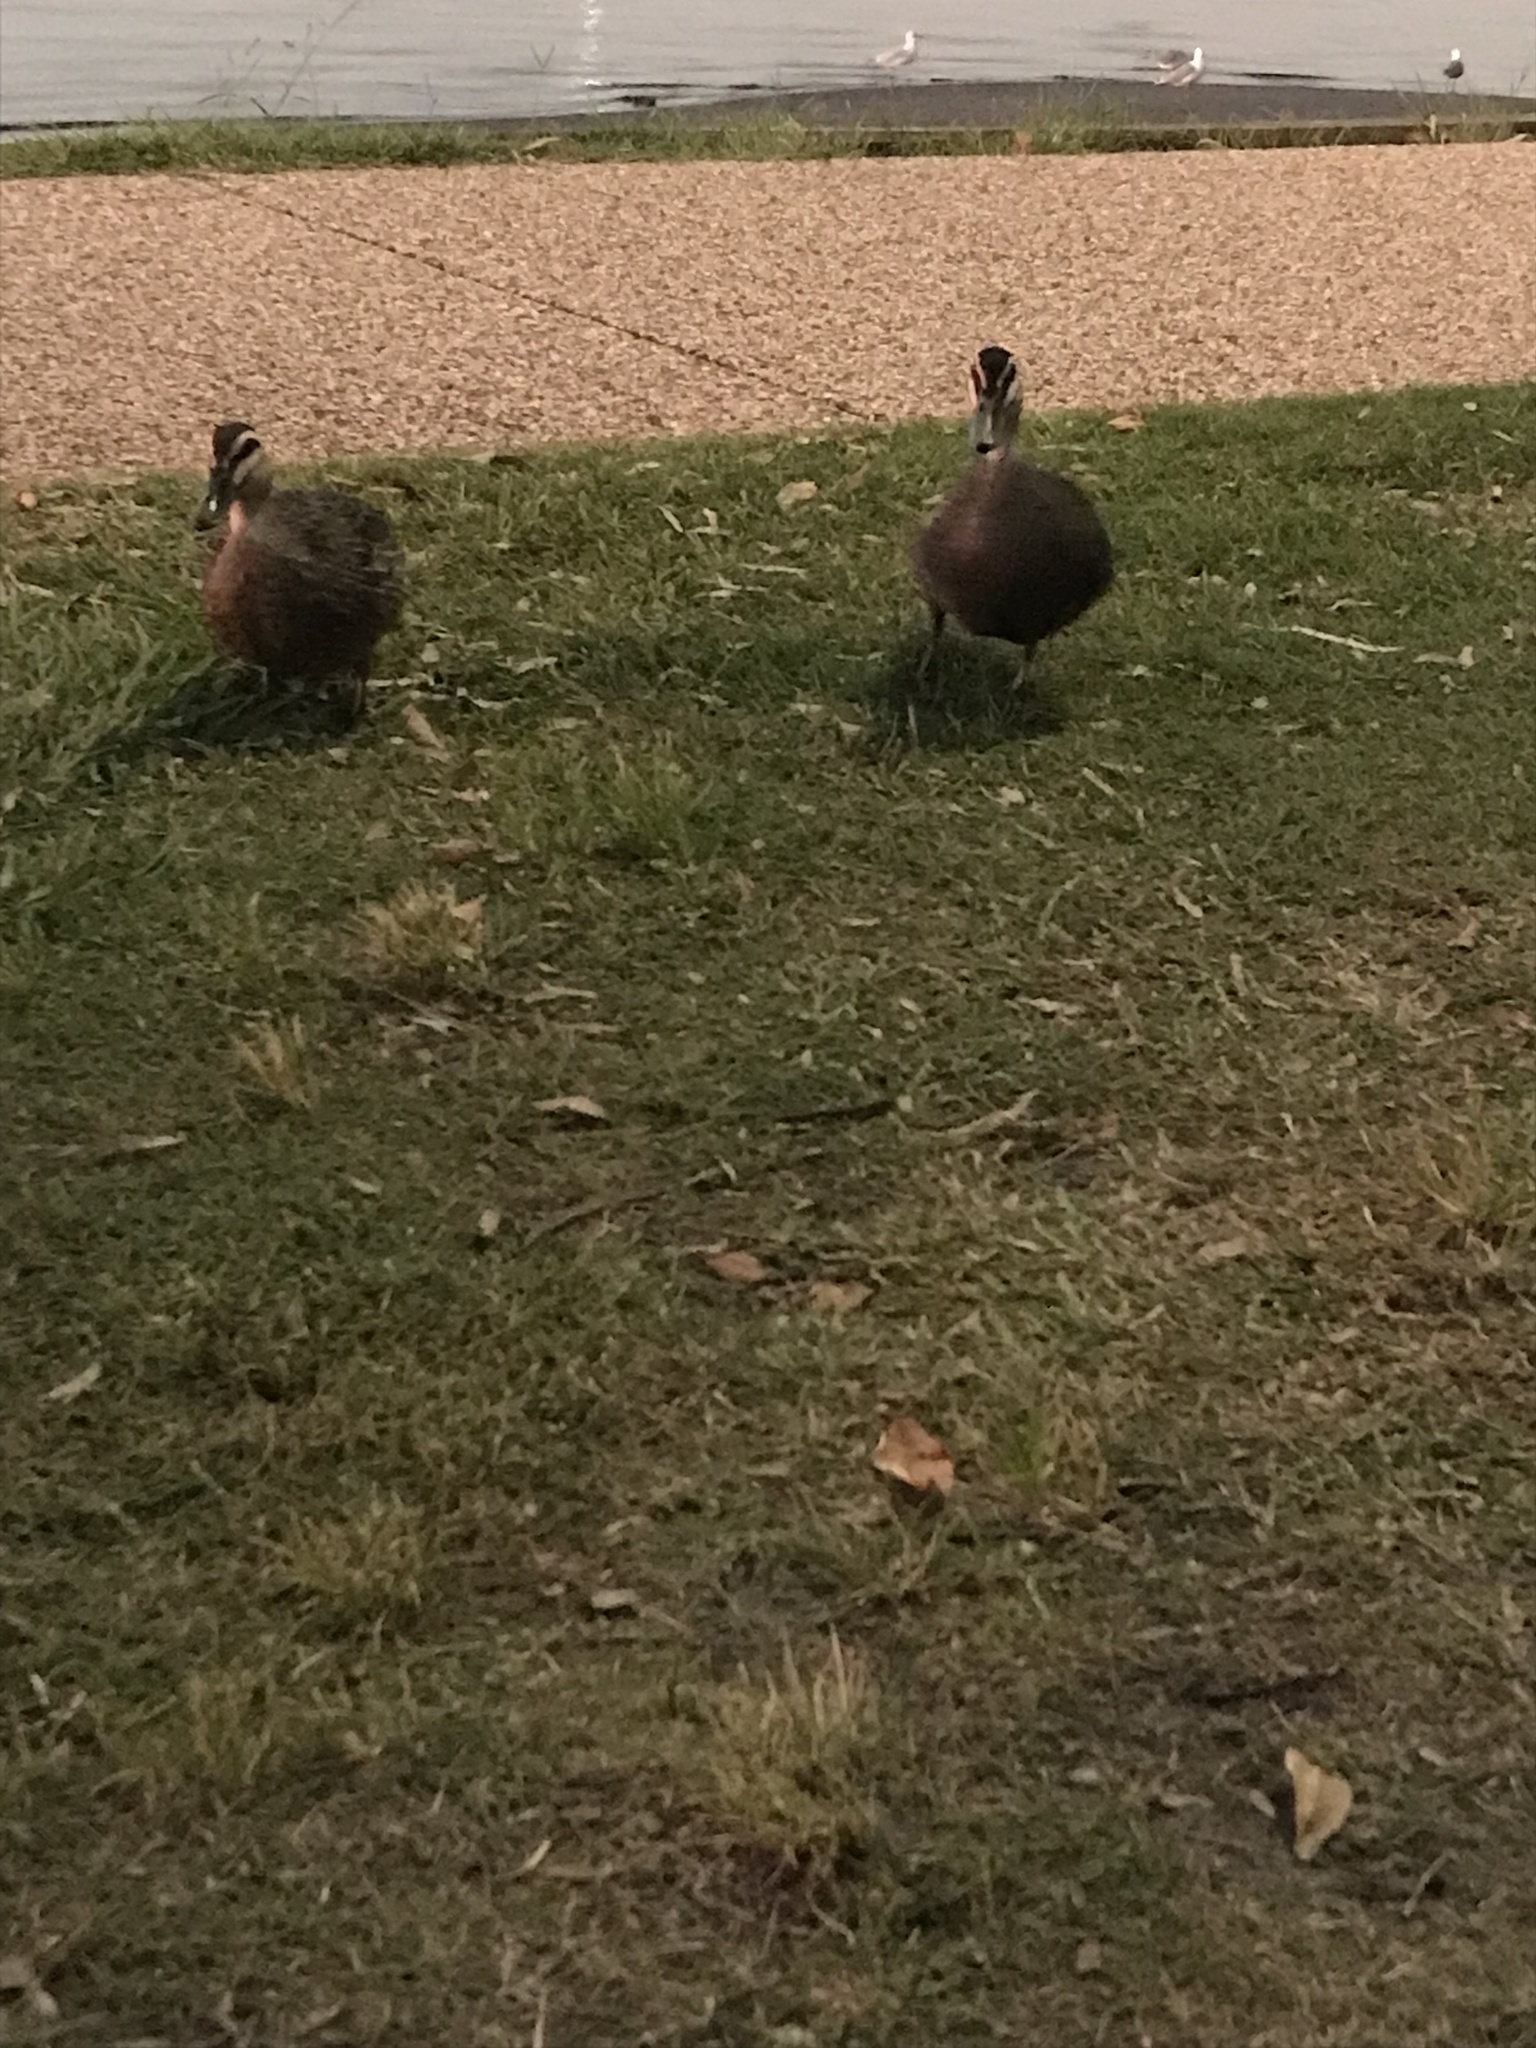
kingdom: Animalia
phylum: Chordata
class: Aves
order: Anseriformes
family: Anatidae
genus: Anas
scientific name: Anas superciliosa
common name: Pacific black duck
